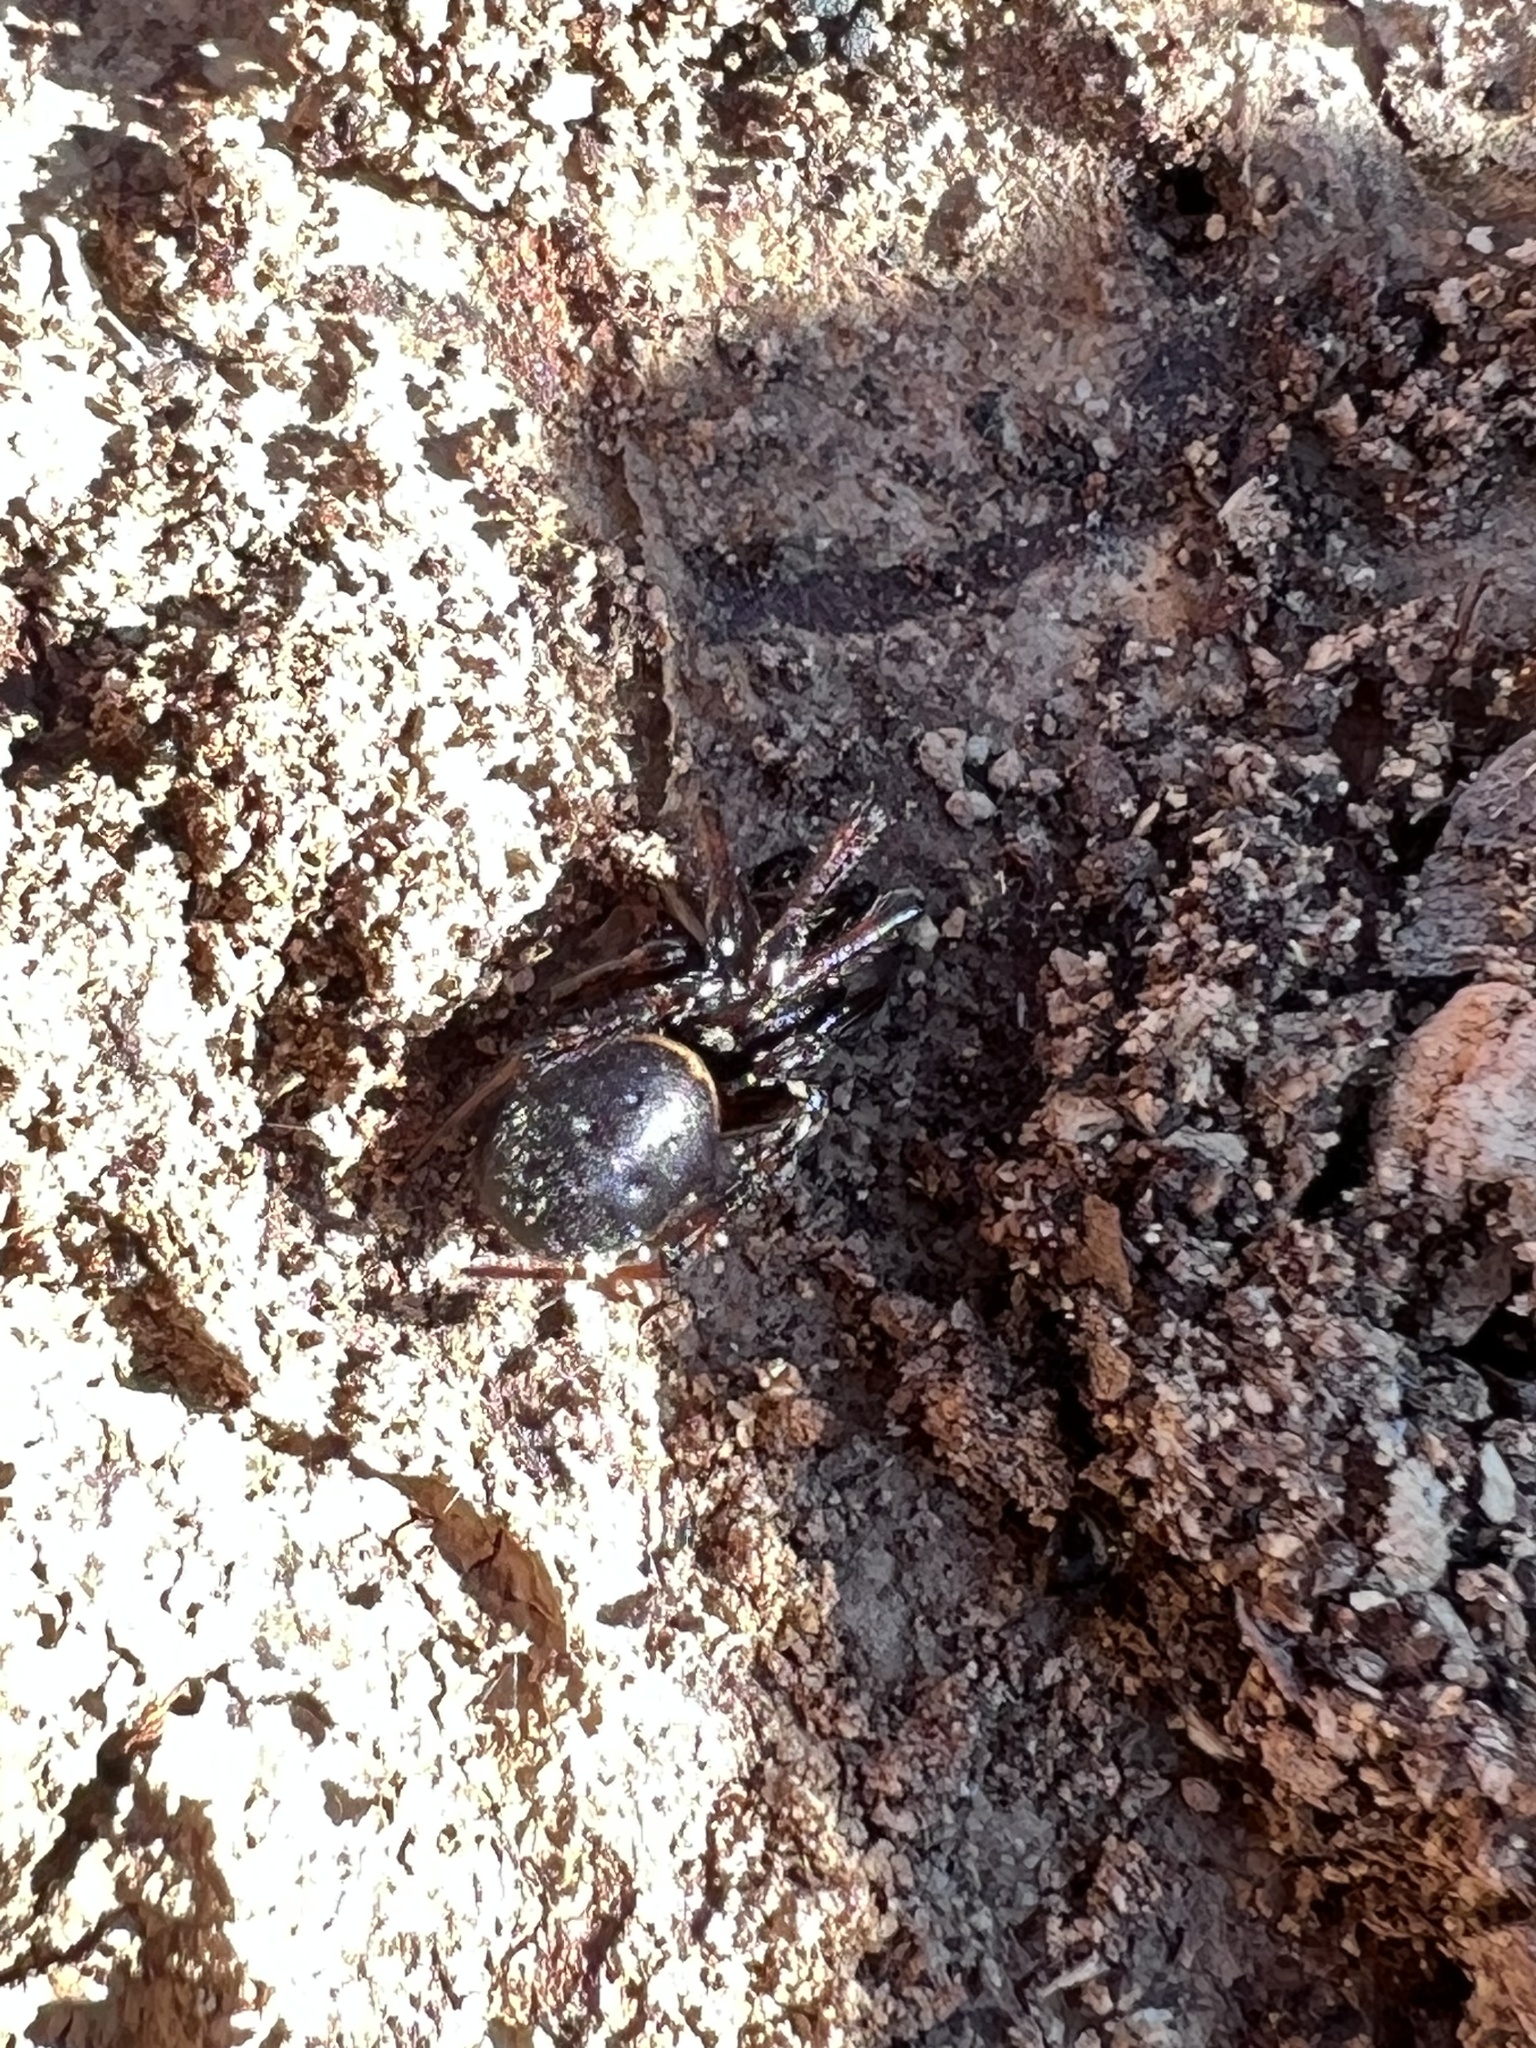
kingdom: Animalia
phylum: Arthropoda
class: Arachnida
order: Araneae
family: Theridiidae
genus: Steatoda
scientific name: Steatoda borealis
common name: Boreal combfoot
